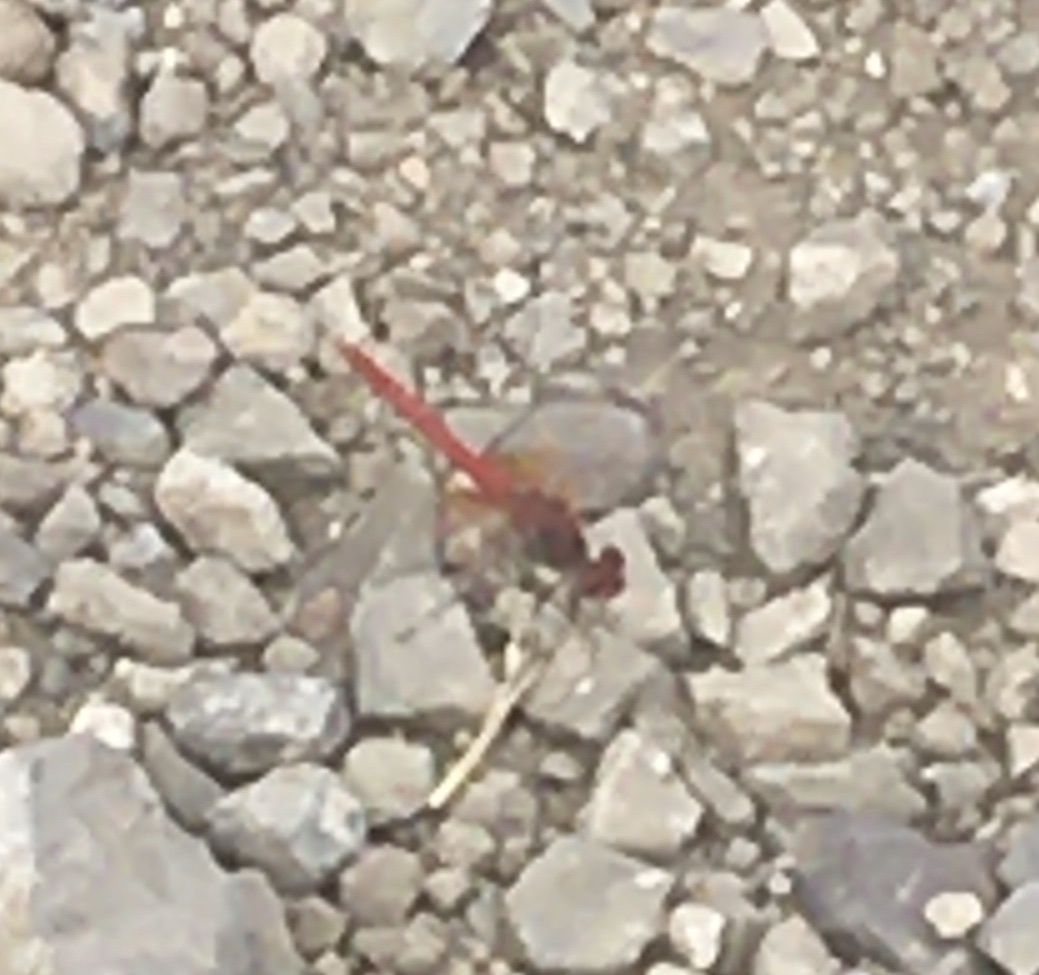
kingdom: Animalia
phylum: Arthropoda
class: Insecta
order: Odonata
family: Libellulidae
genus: Sympetrum
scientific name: Sympetrum fonscolombii
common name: Red-veined darter
